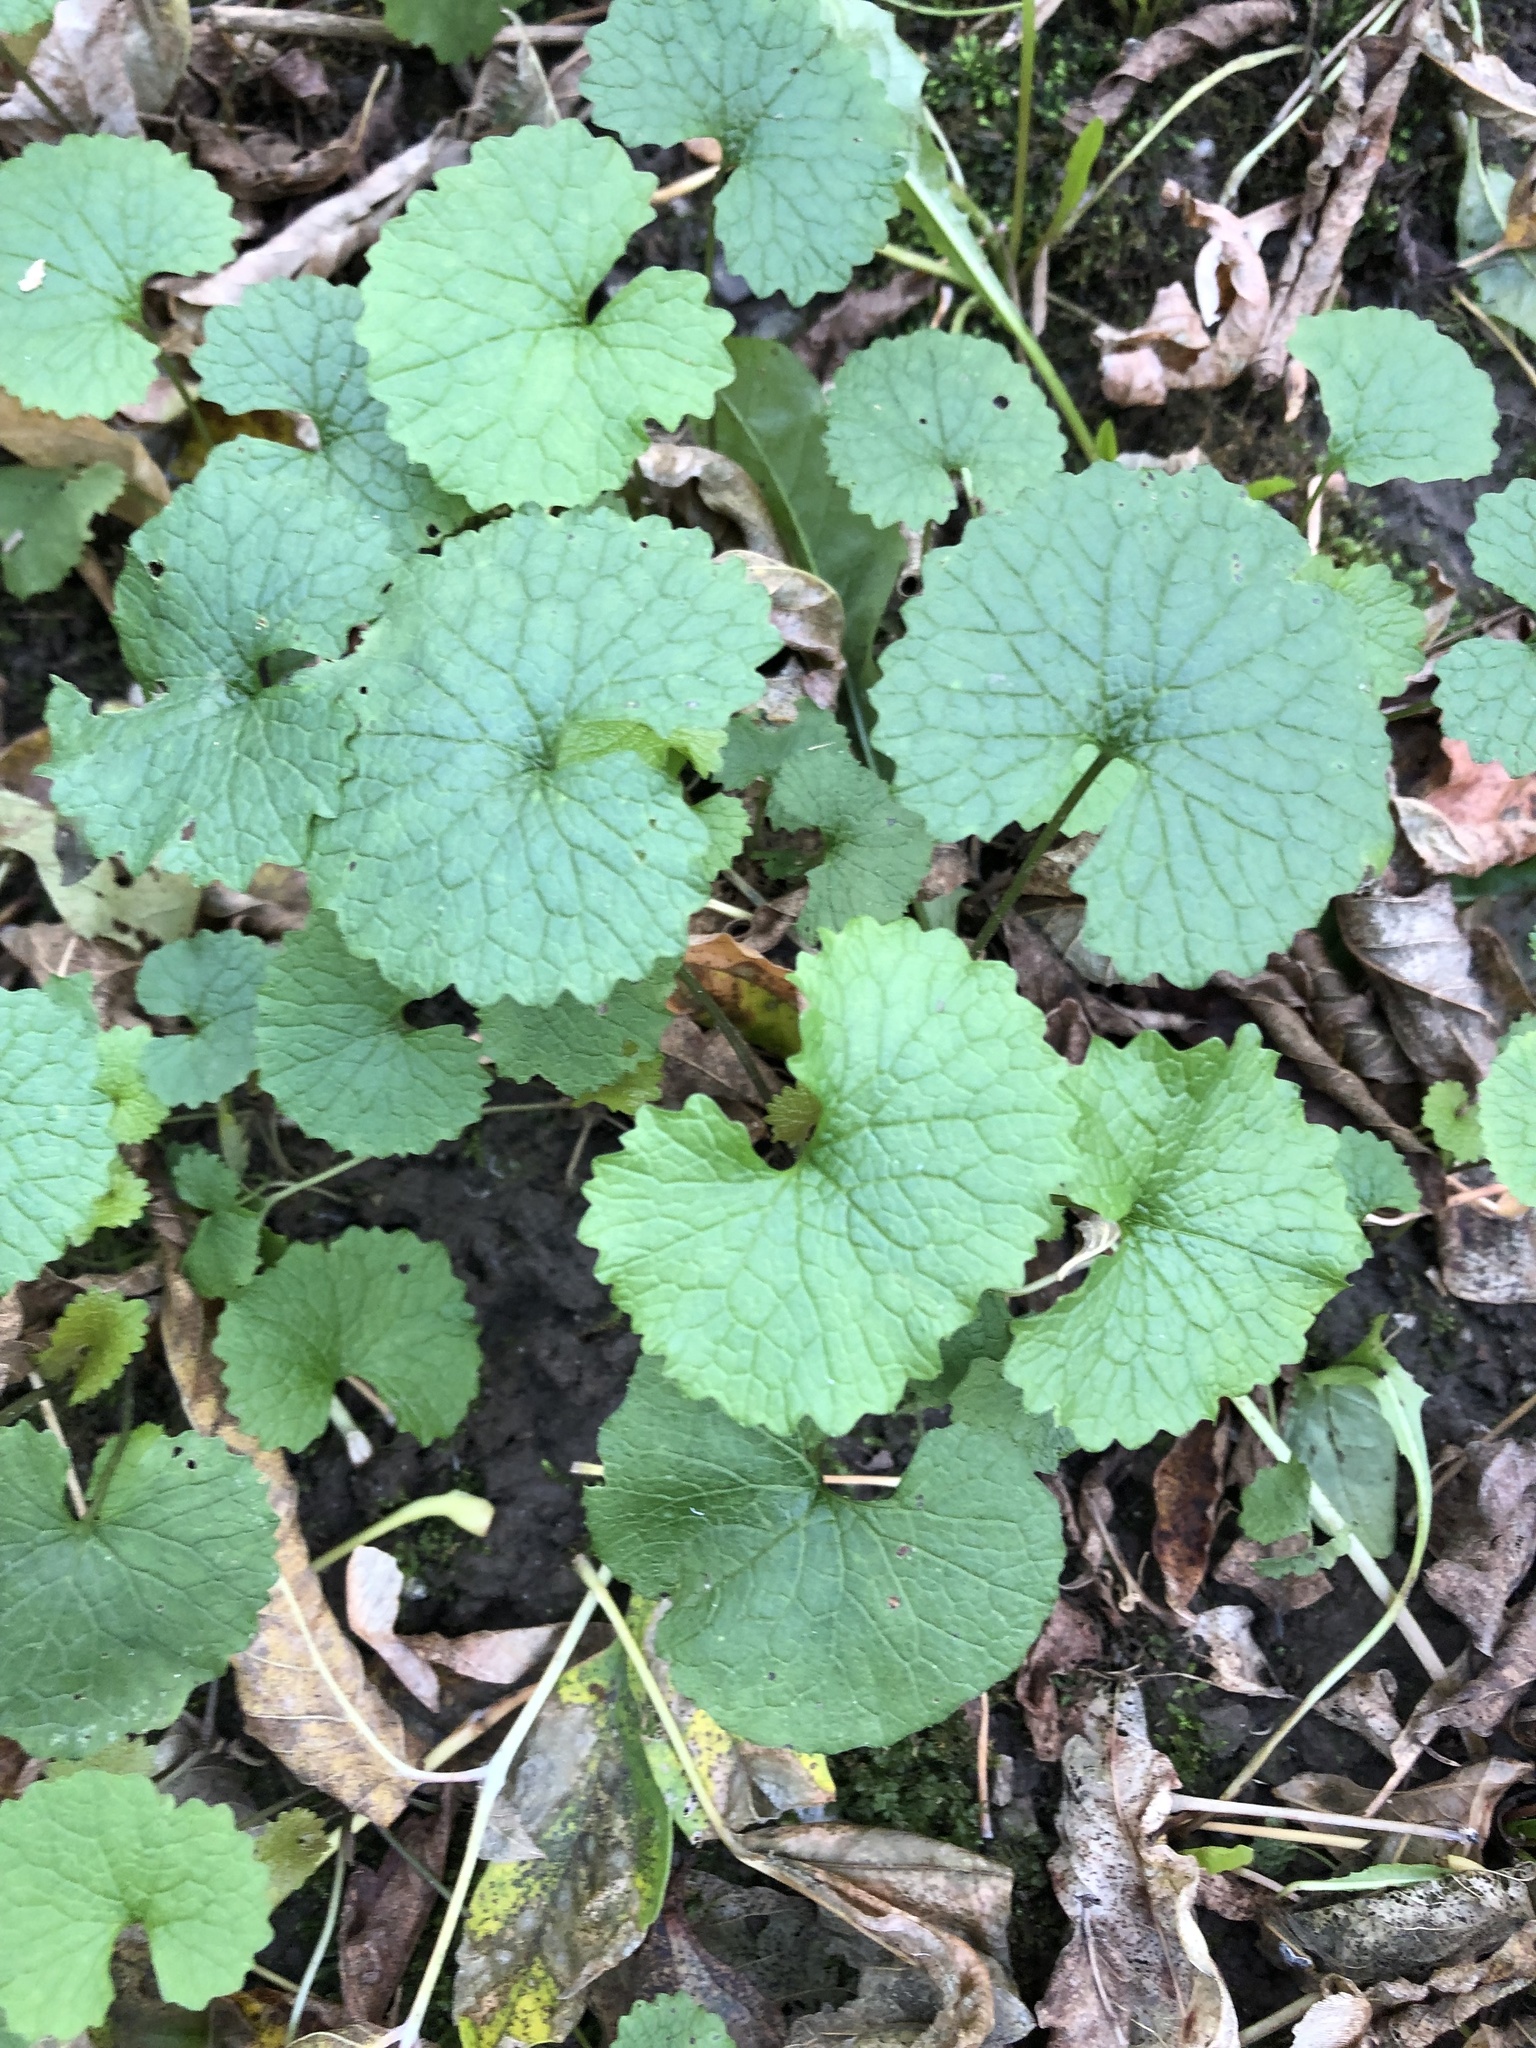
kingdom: Plantae
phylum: Tracheophyta
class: Magnoliopsida
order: Brassicales
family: Brassicaceae
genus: Alliaria
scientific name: Alliaria petiolata
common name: Garlic mustard
